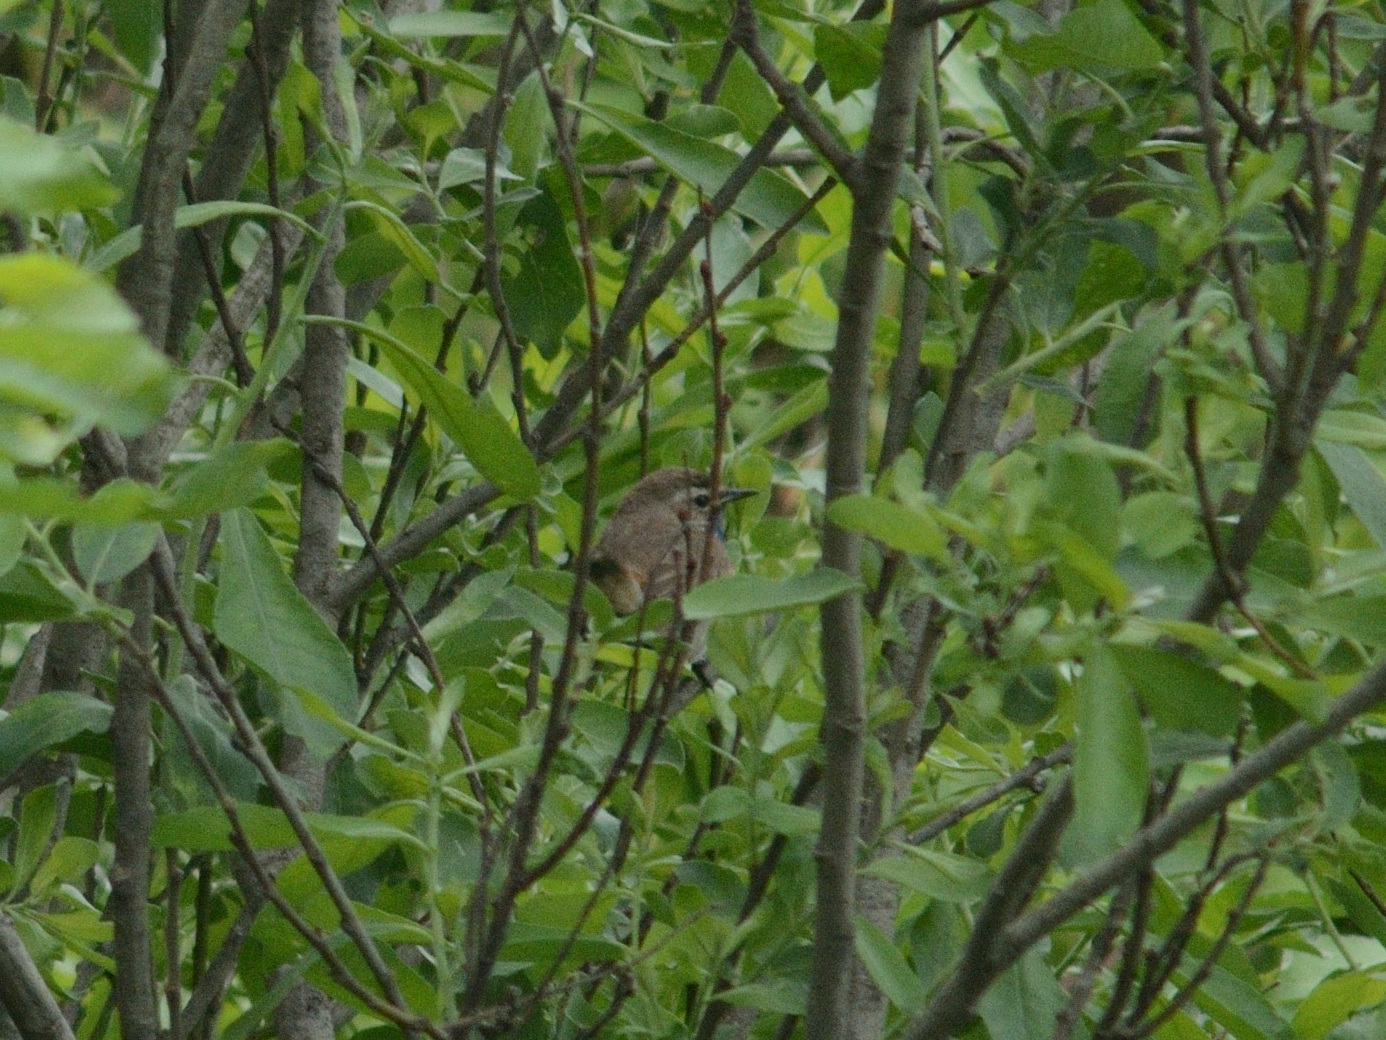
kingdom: Animalia
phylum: Chordata
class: Aves
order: Passeriformes
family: Muscicapidae
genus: Luscinia
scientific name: Luscinia svecica
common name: Bluethroat
